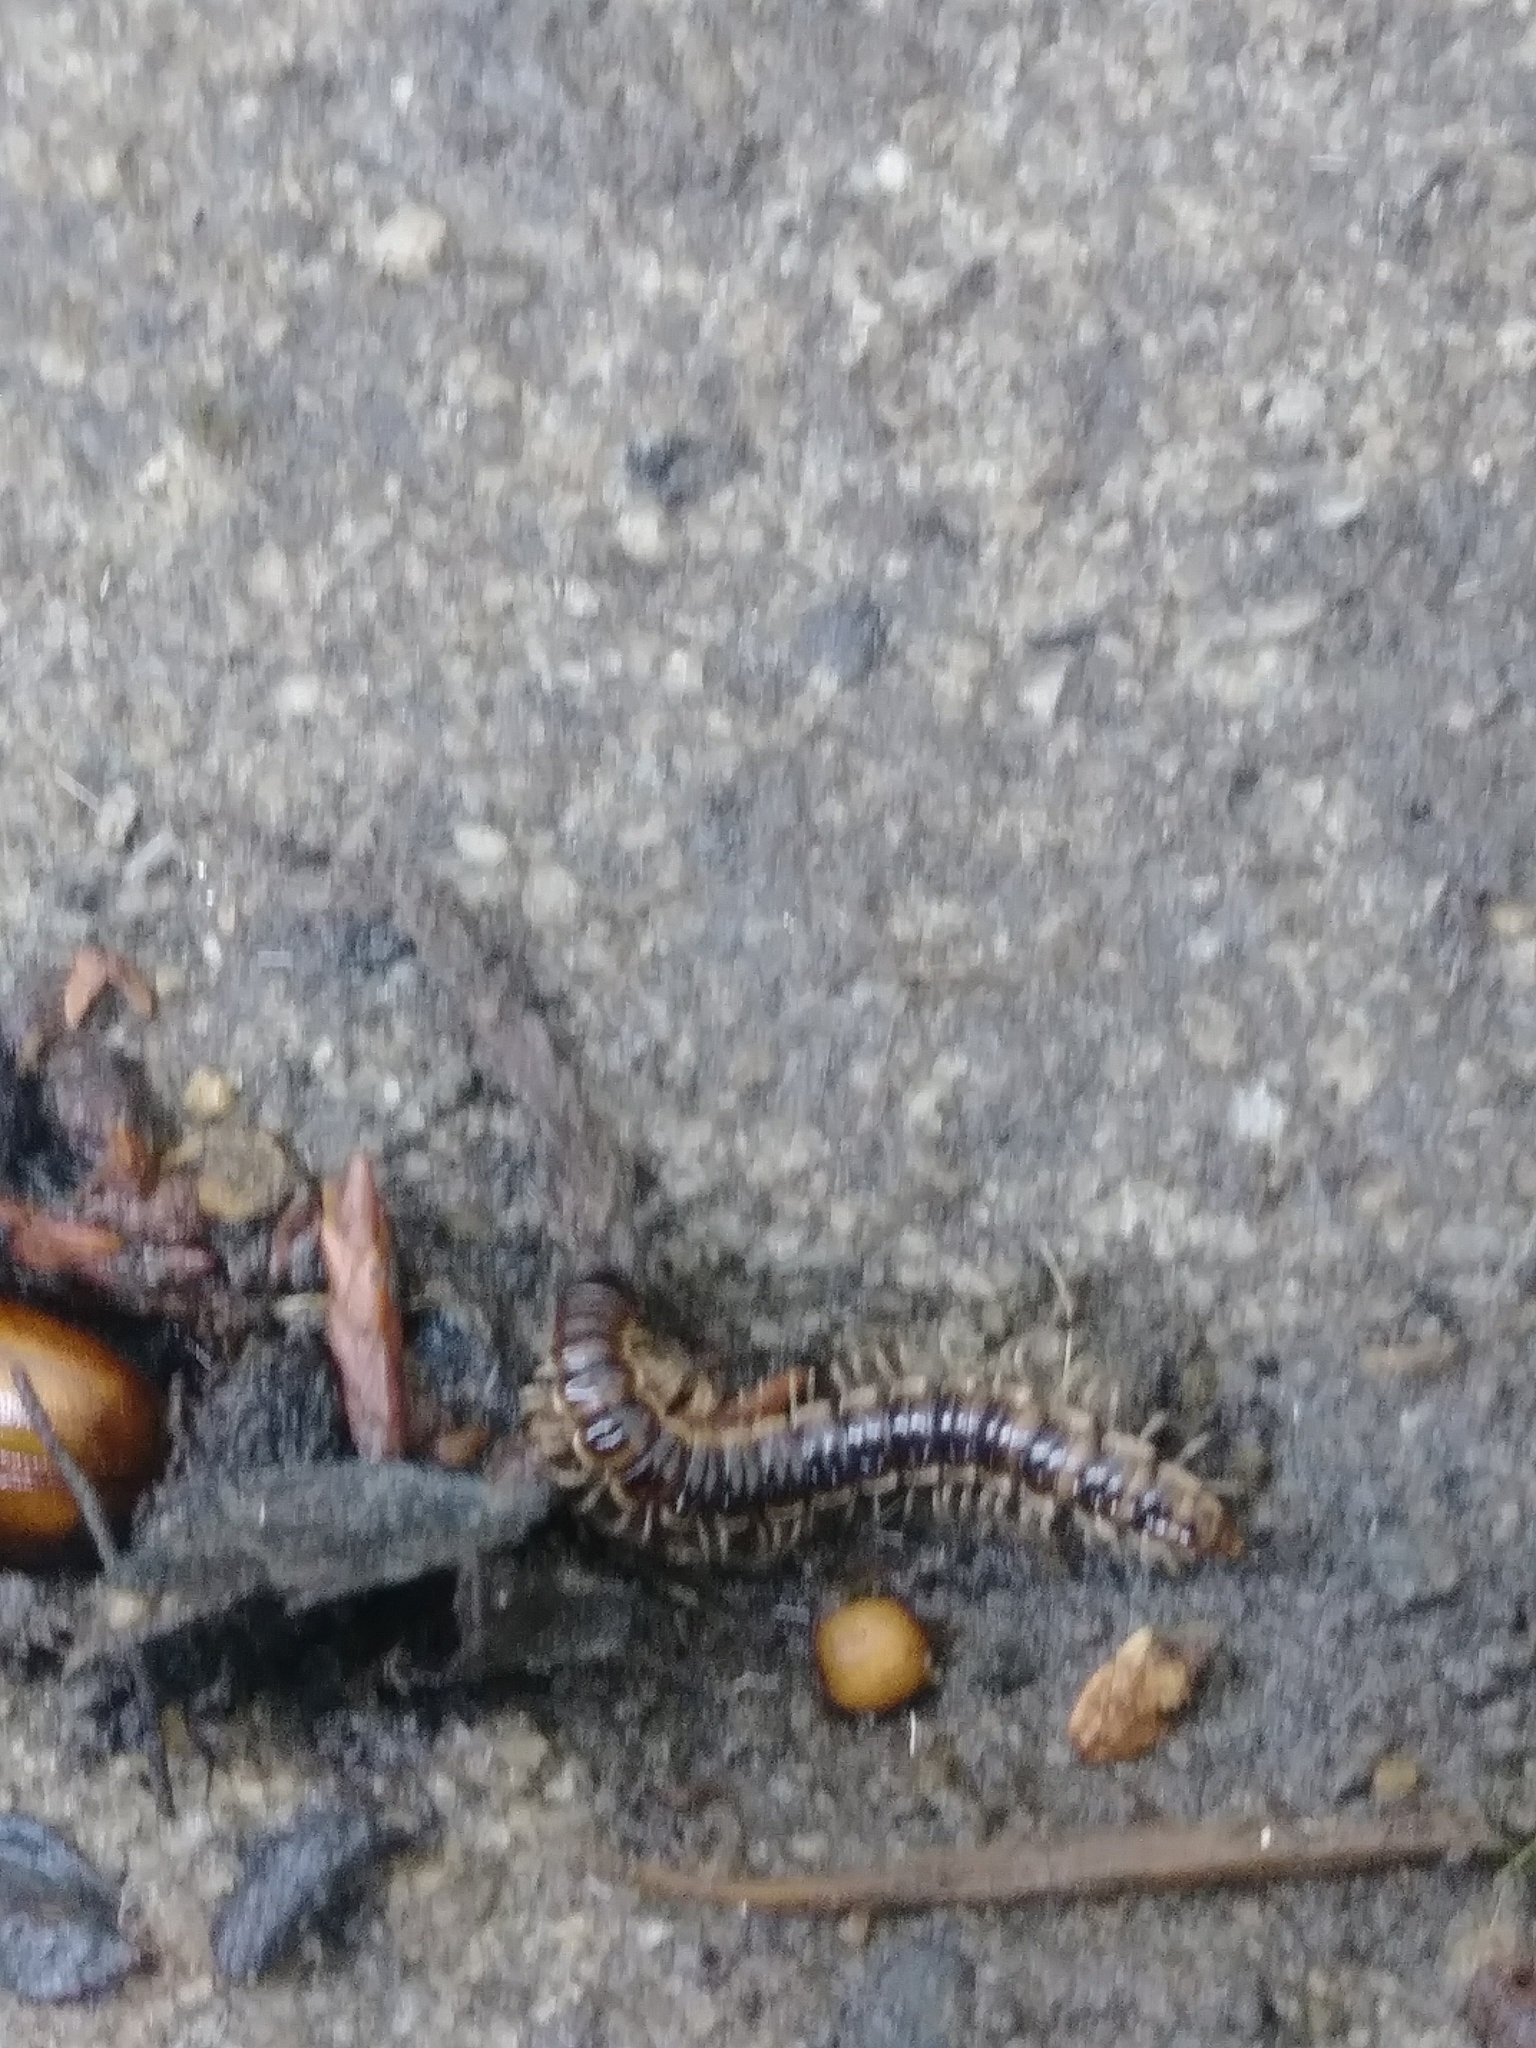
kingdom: Animalia
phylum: Arthropoda
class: Diplopoda
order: Polydesmida
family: Paradoxosomatidae
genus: Oxidus
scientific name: Oxidus gracilis
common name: Greenhouse millipede
